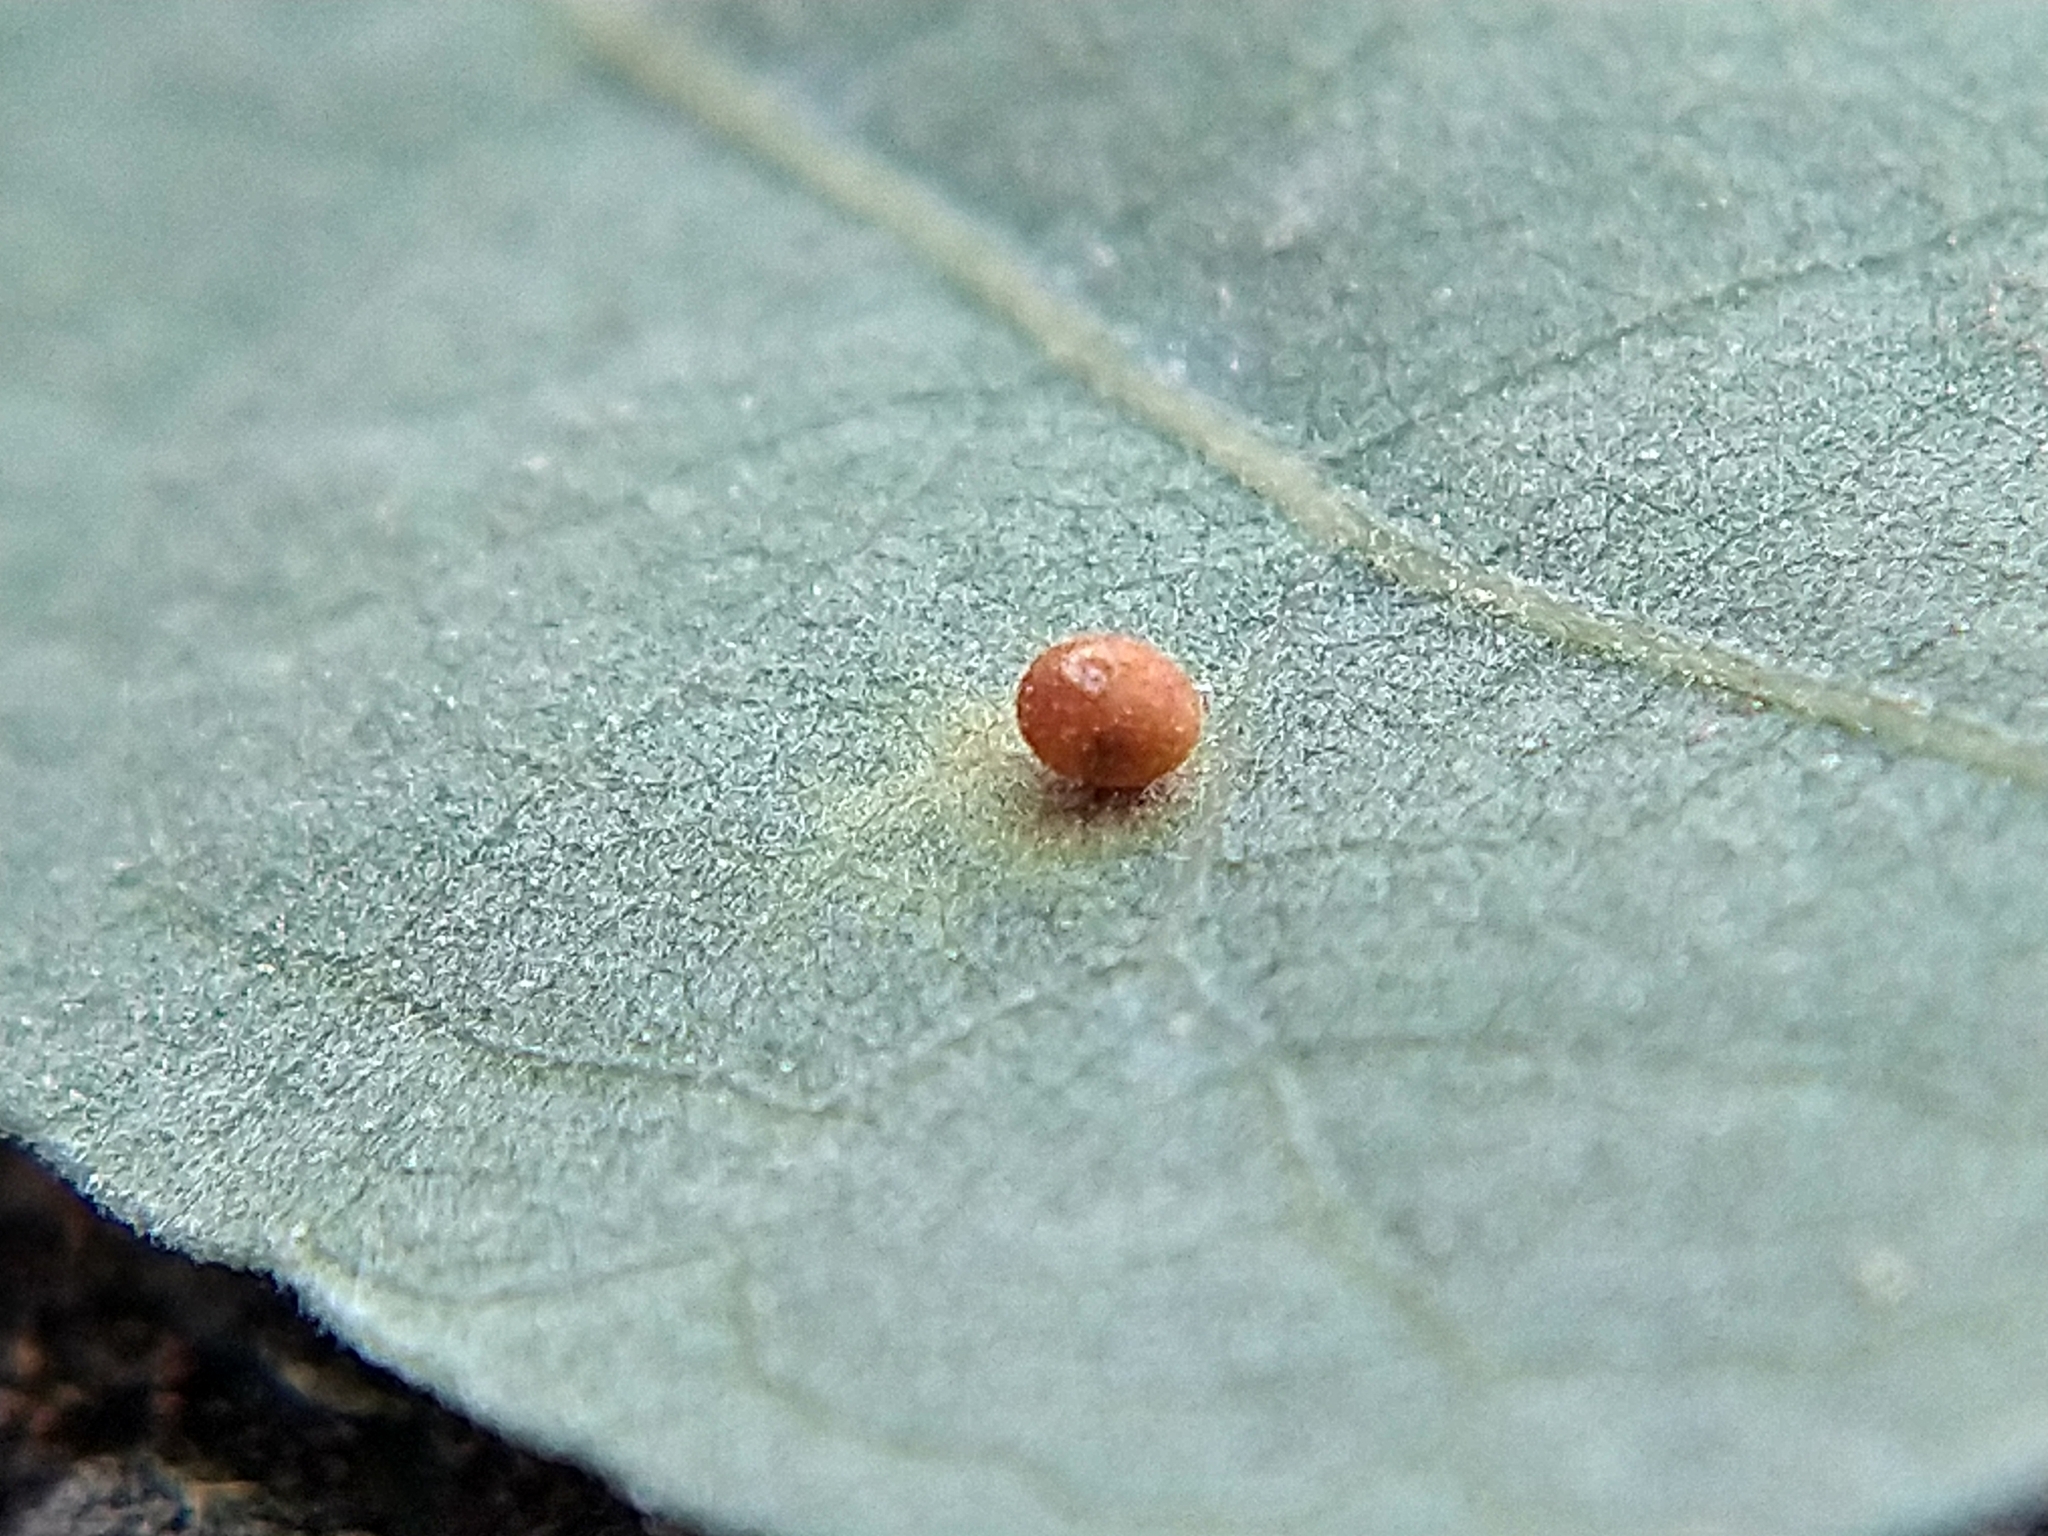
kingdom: Animalia
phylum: Arthropoda
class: Insecta
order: Hymenoptera
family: Cynipidae
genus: Neuroterus
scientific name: Neuroterus saltarius
